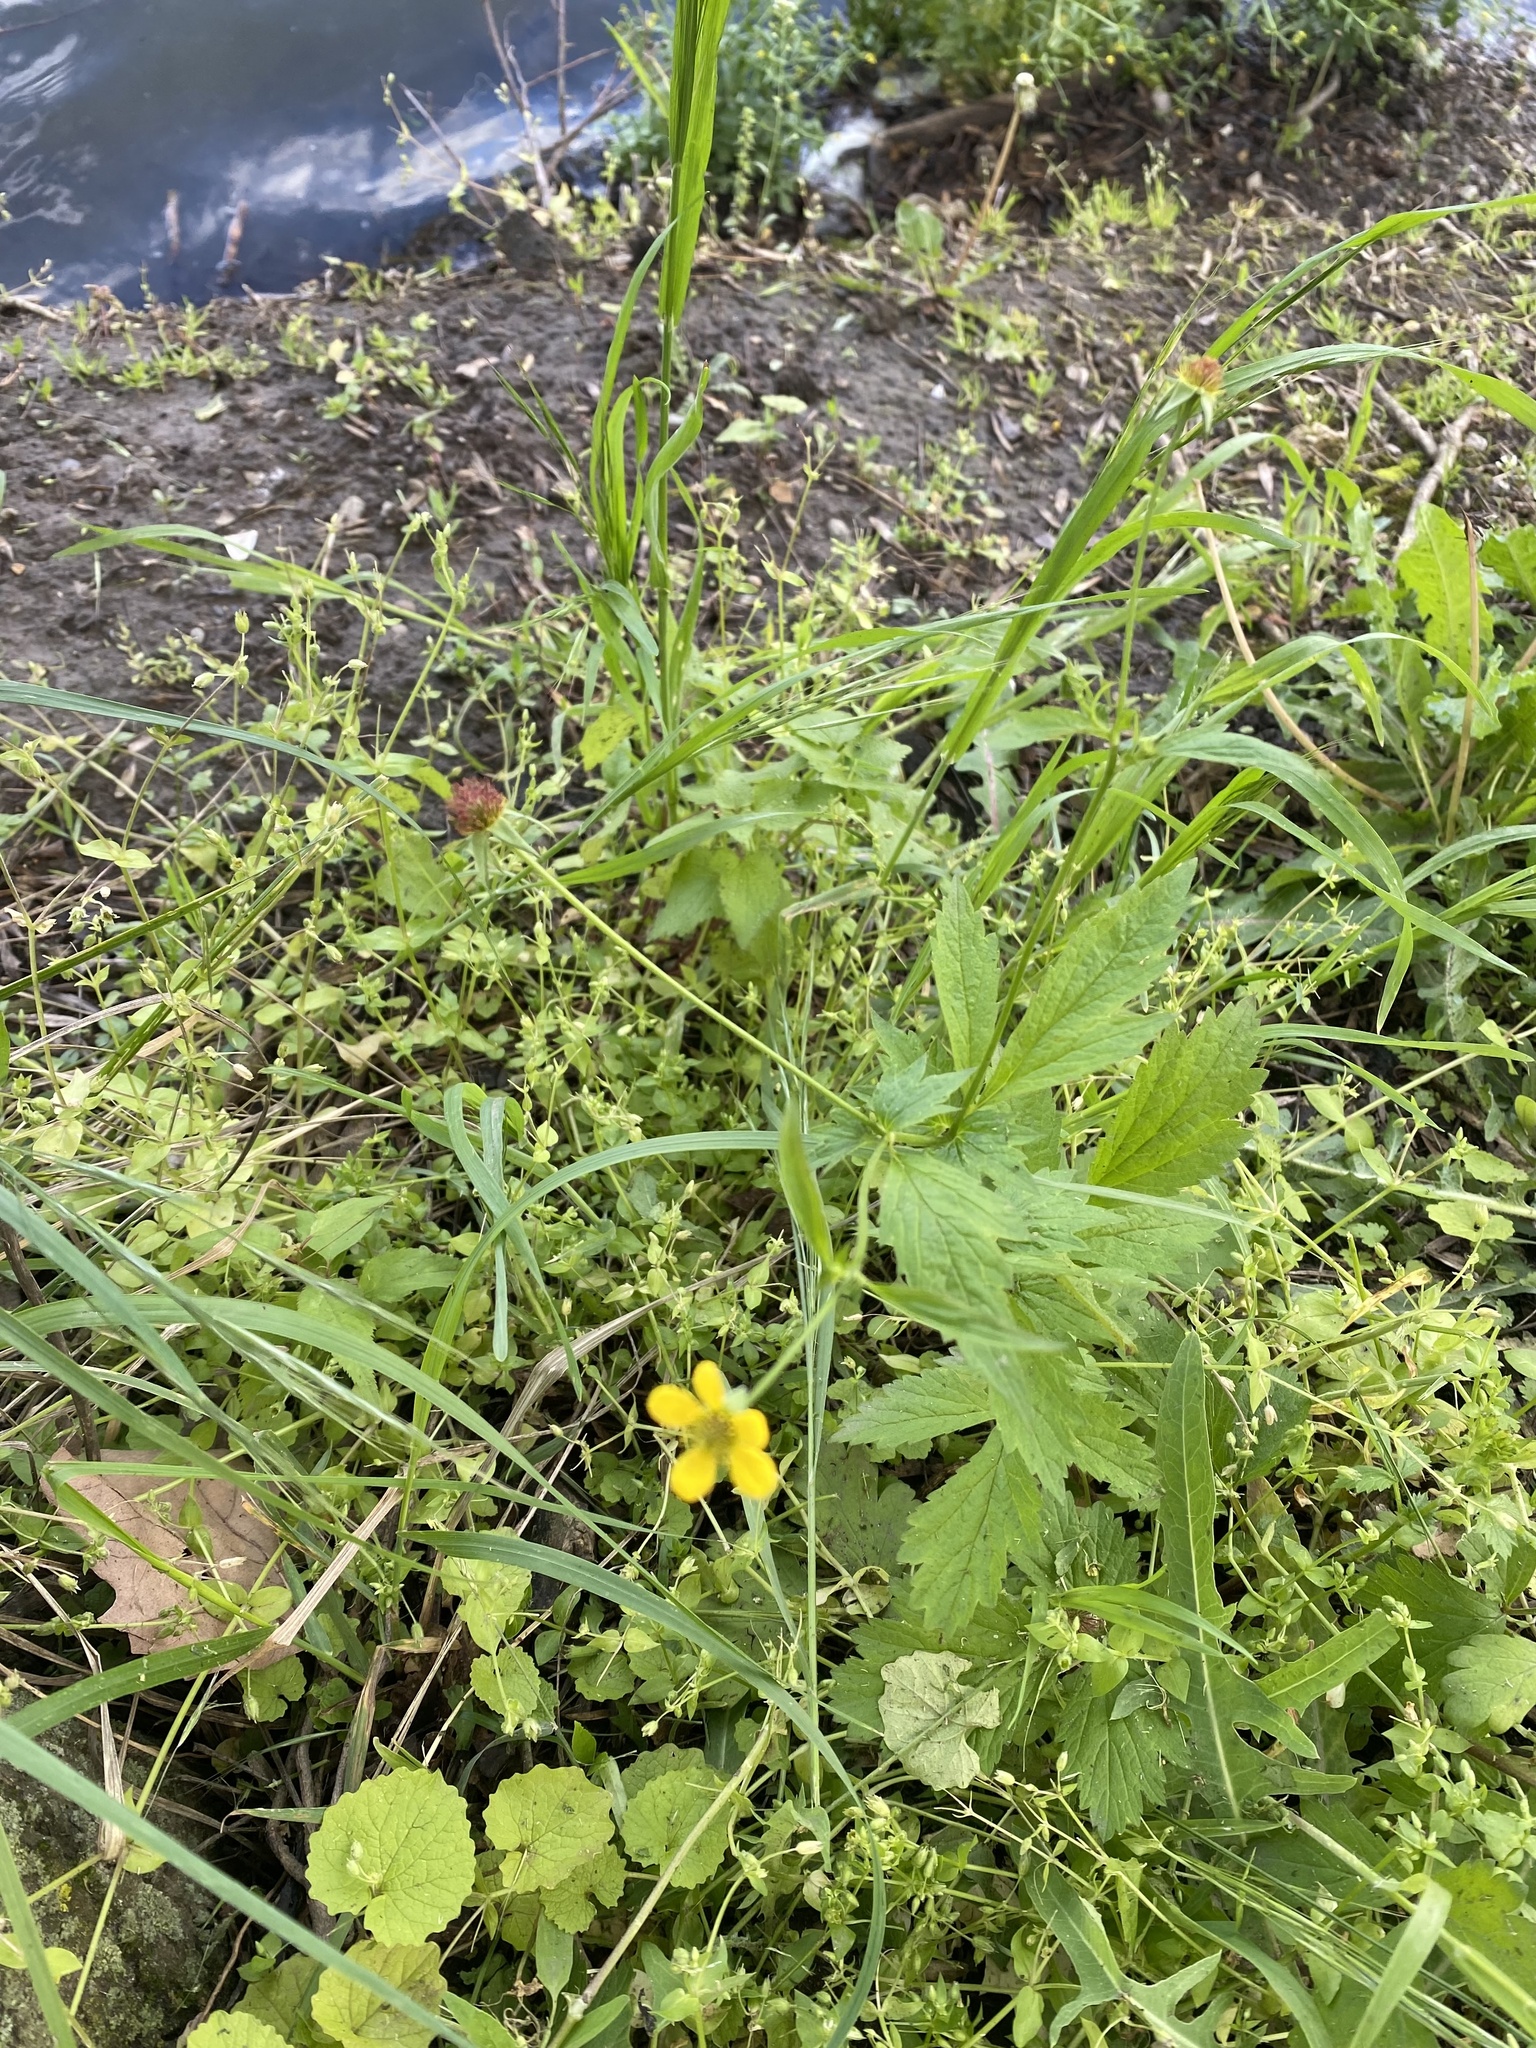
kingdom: Plantae
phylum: Tracheophyta
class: Magnoliopsida
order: Rosales
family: Rosaceae
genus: Geum
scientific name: Geum urbanum
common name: Wood avens
